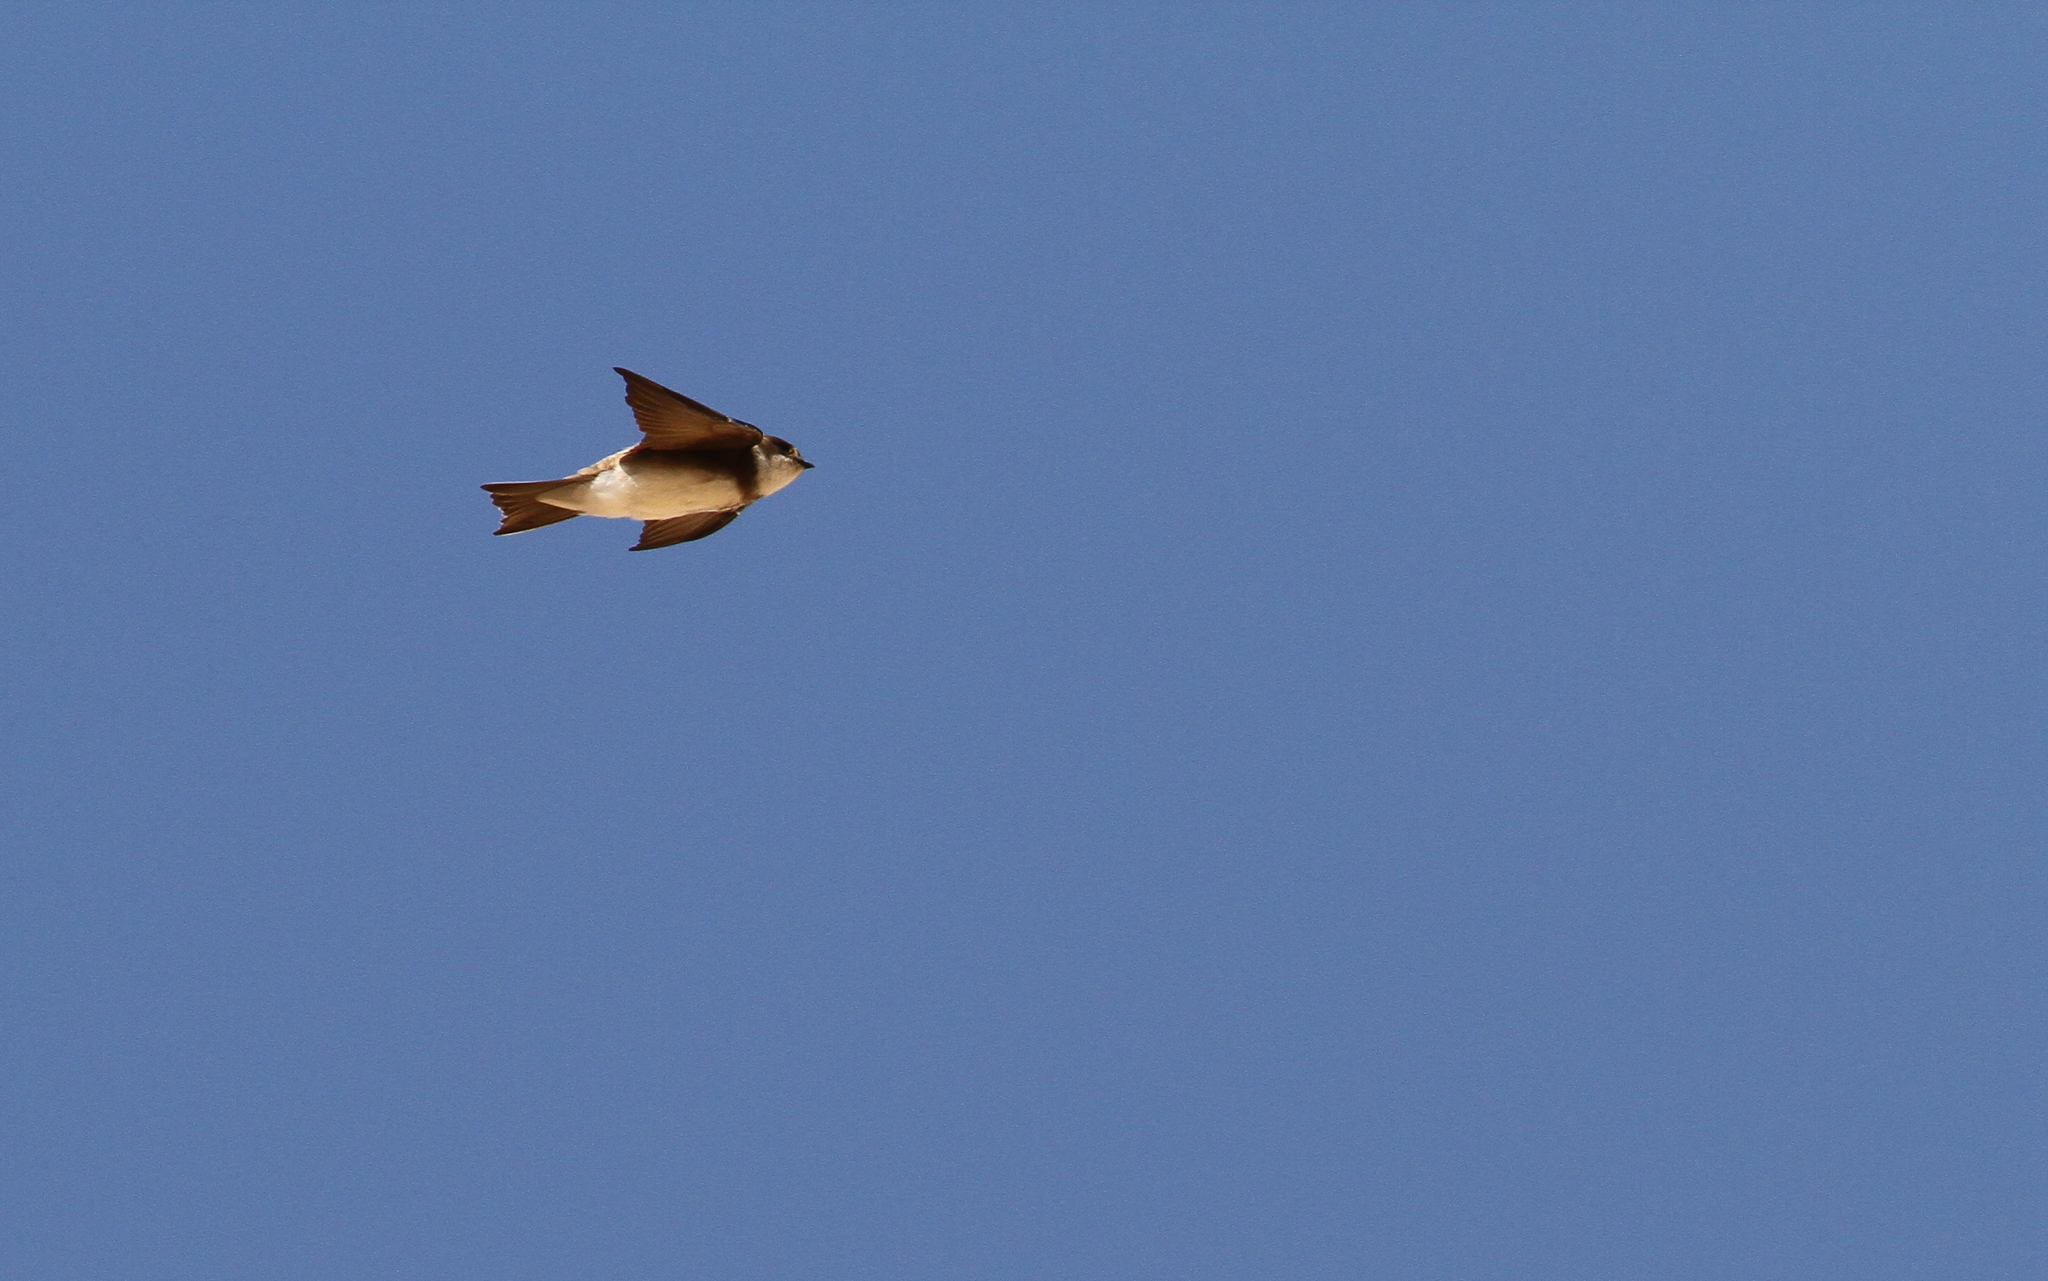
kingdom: Animalia
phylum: Chordata
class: Aves
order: Passeriformes
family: Hirundinidae
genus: Riparia
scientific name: Riparia riparia
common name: Sand martin
